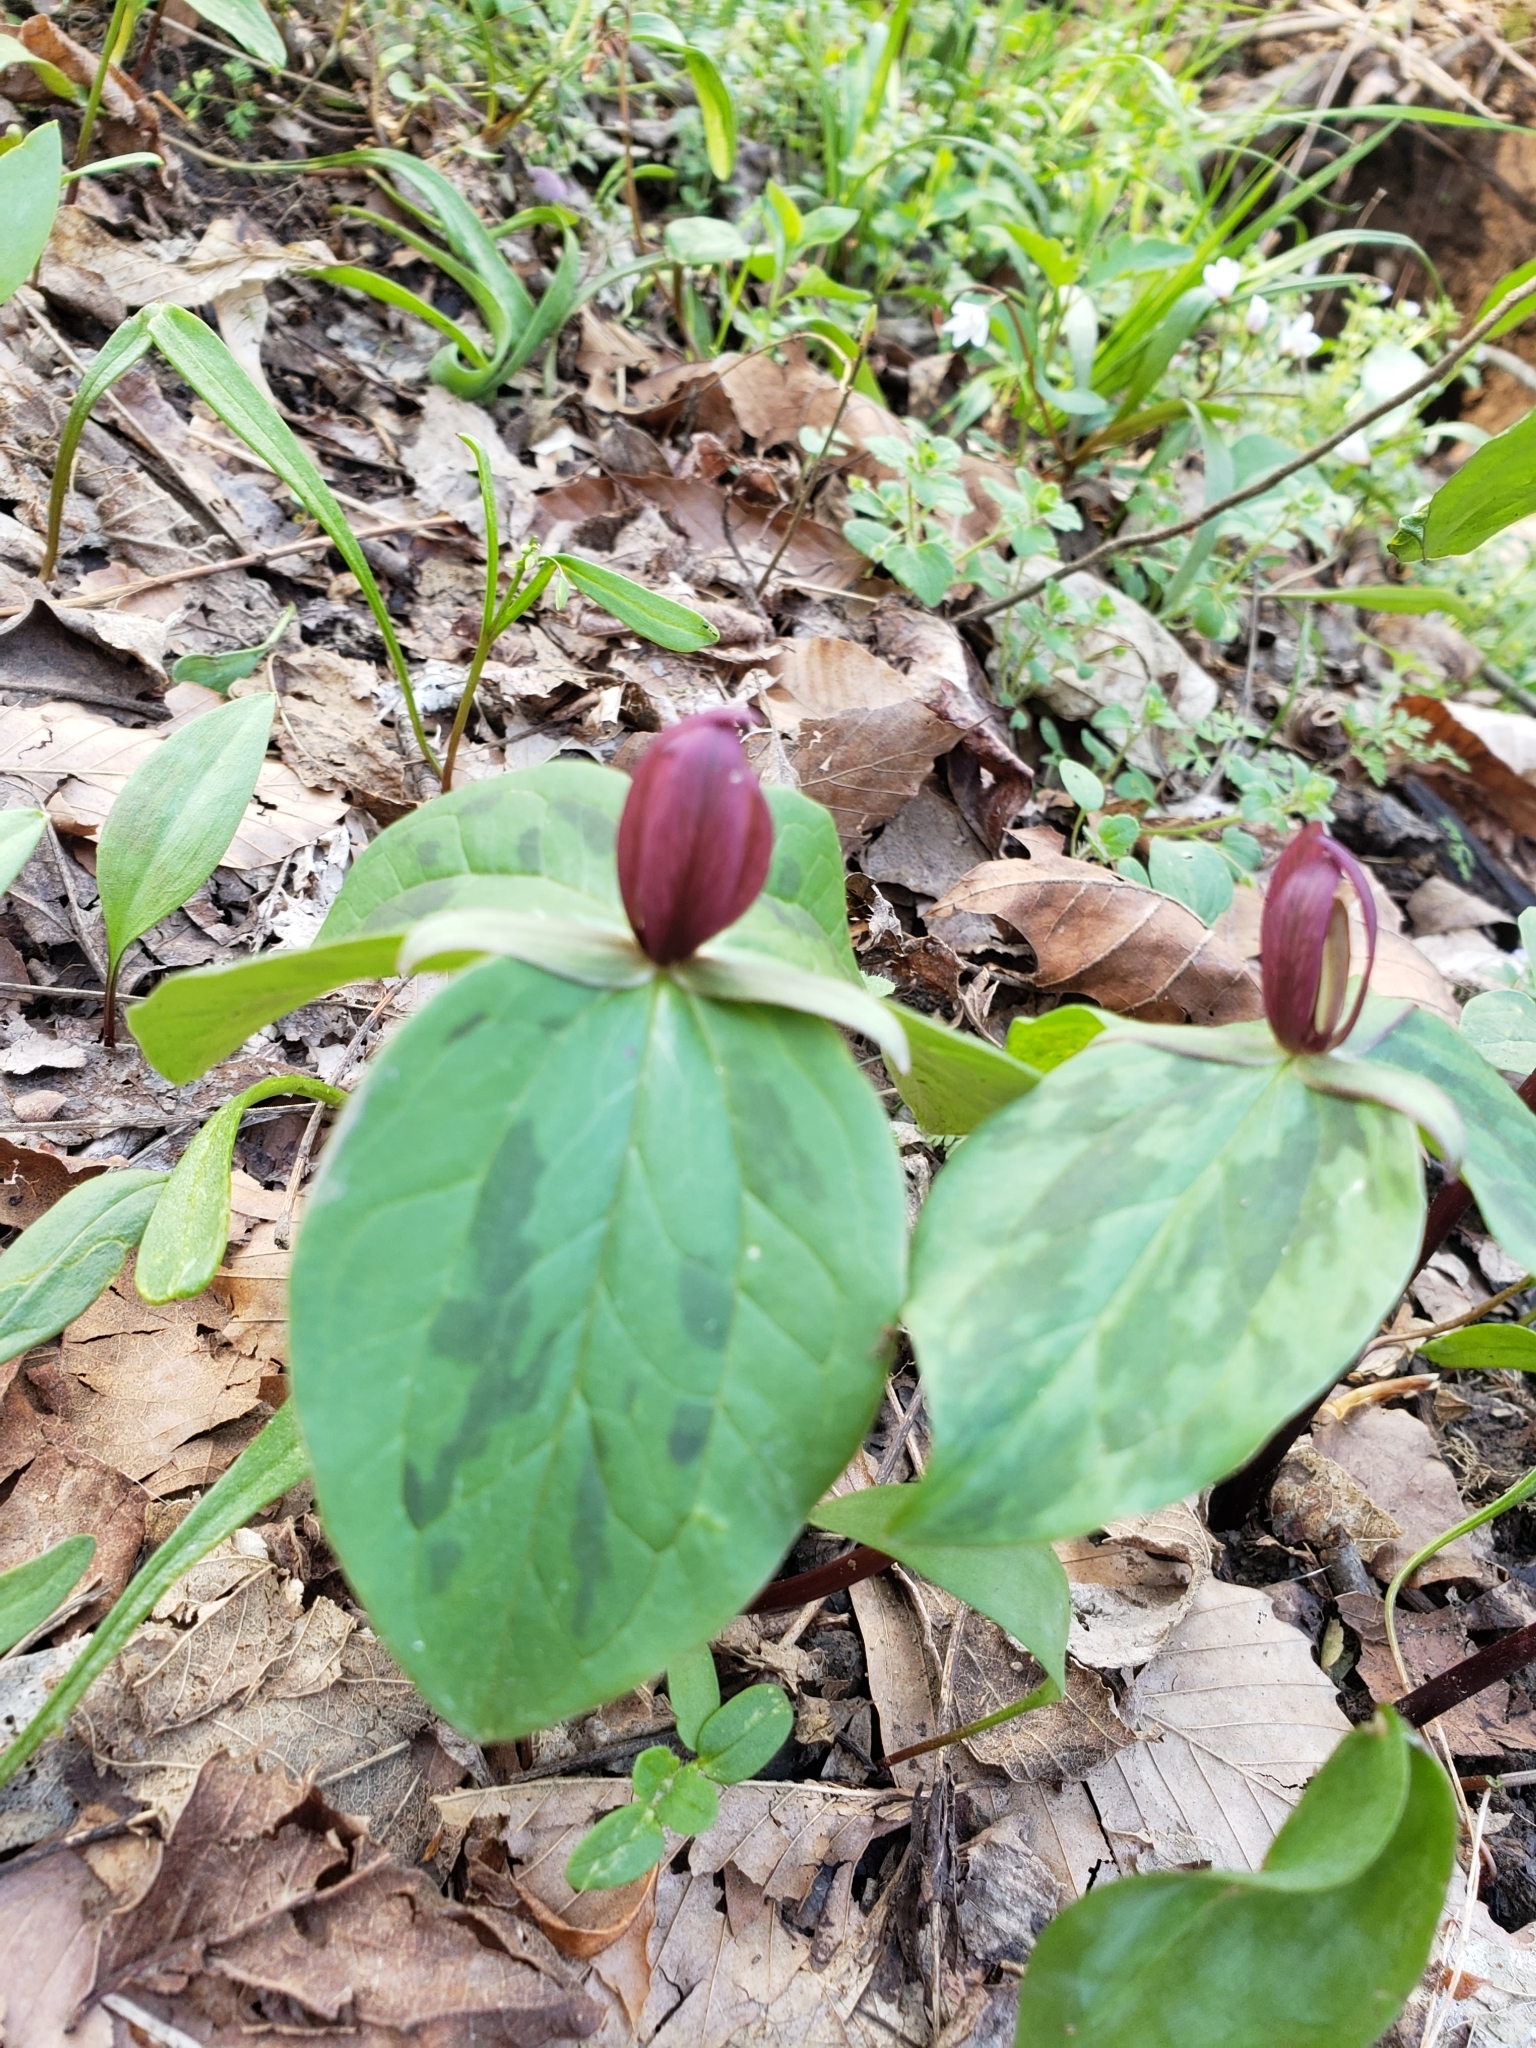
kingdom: Plantae
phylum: Tracheophyta
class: Liliopsida
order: Liliales
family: Melanthiaceae
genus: Trillium
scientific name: Trillium sessile
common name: Sessile trillium
